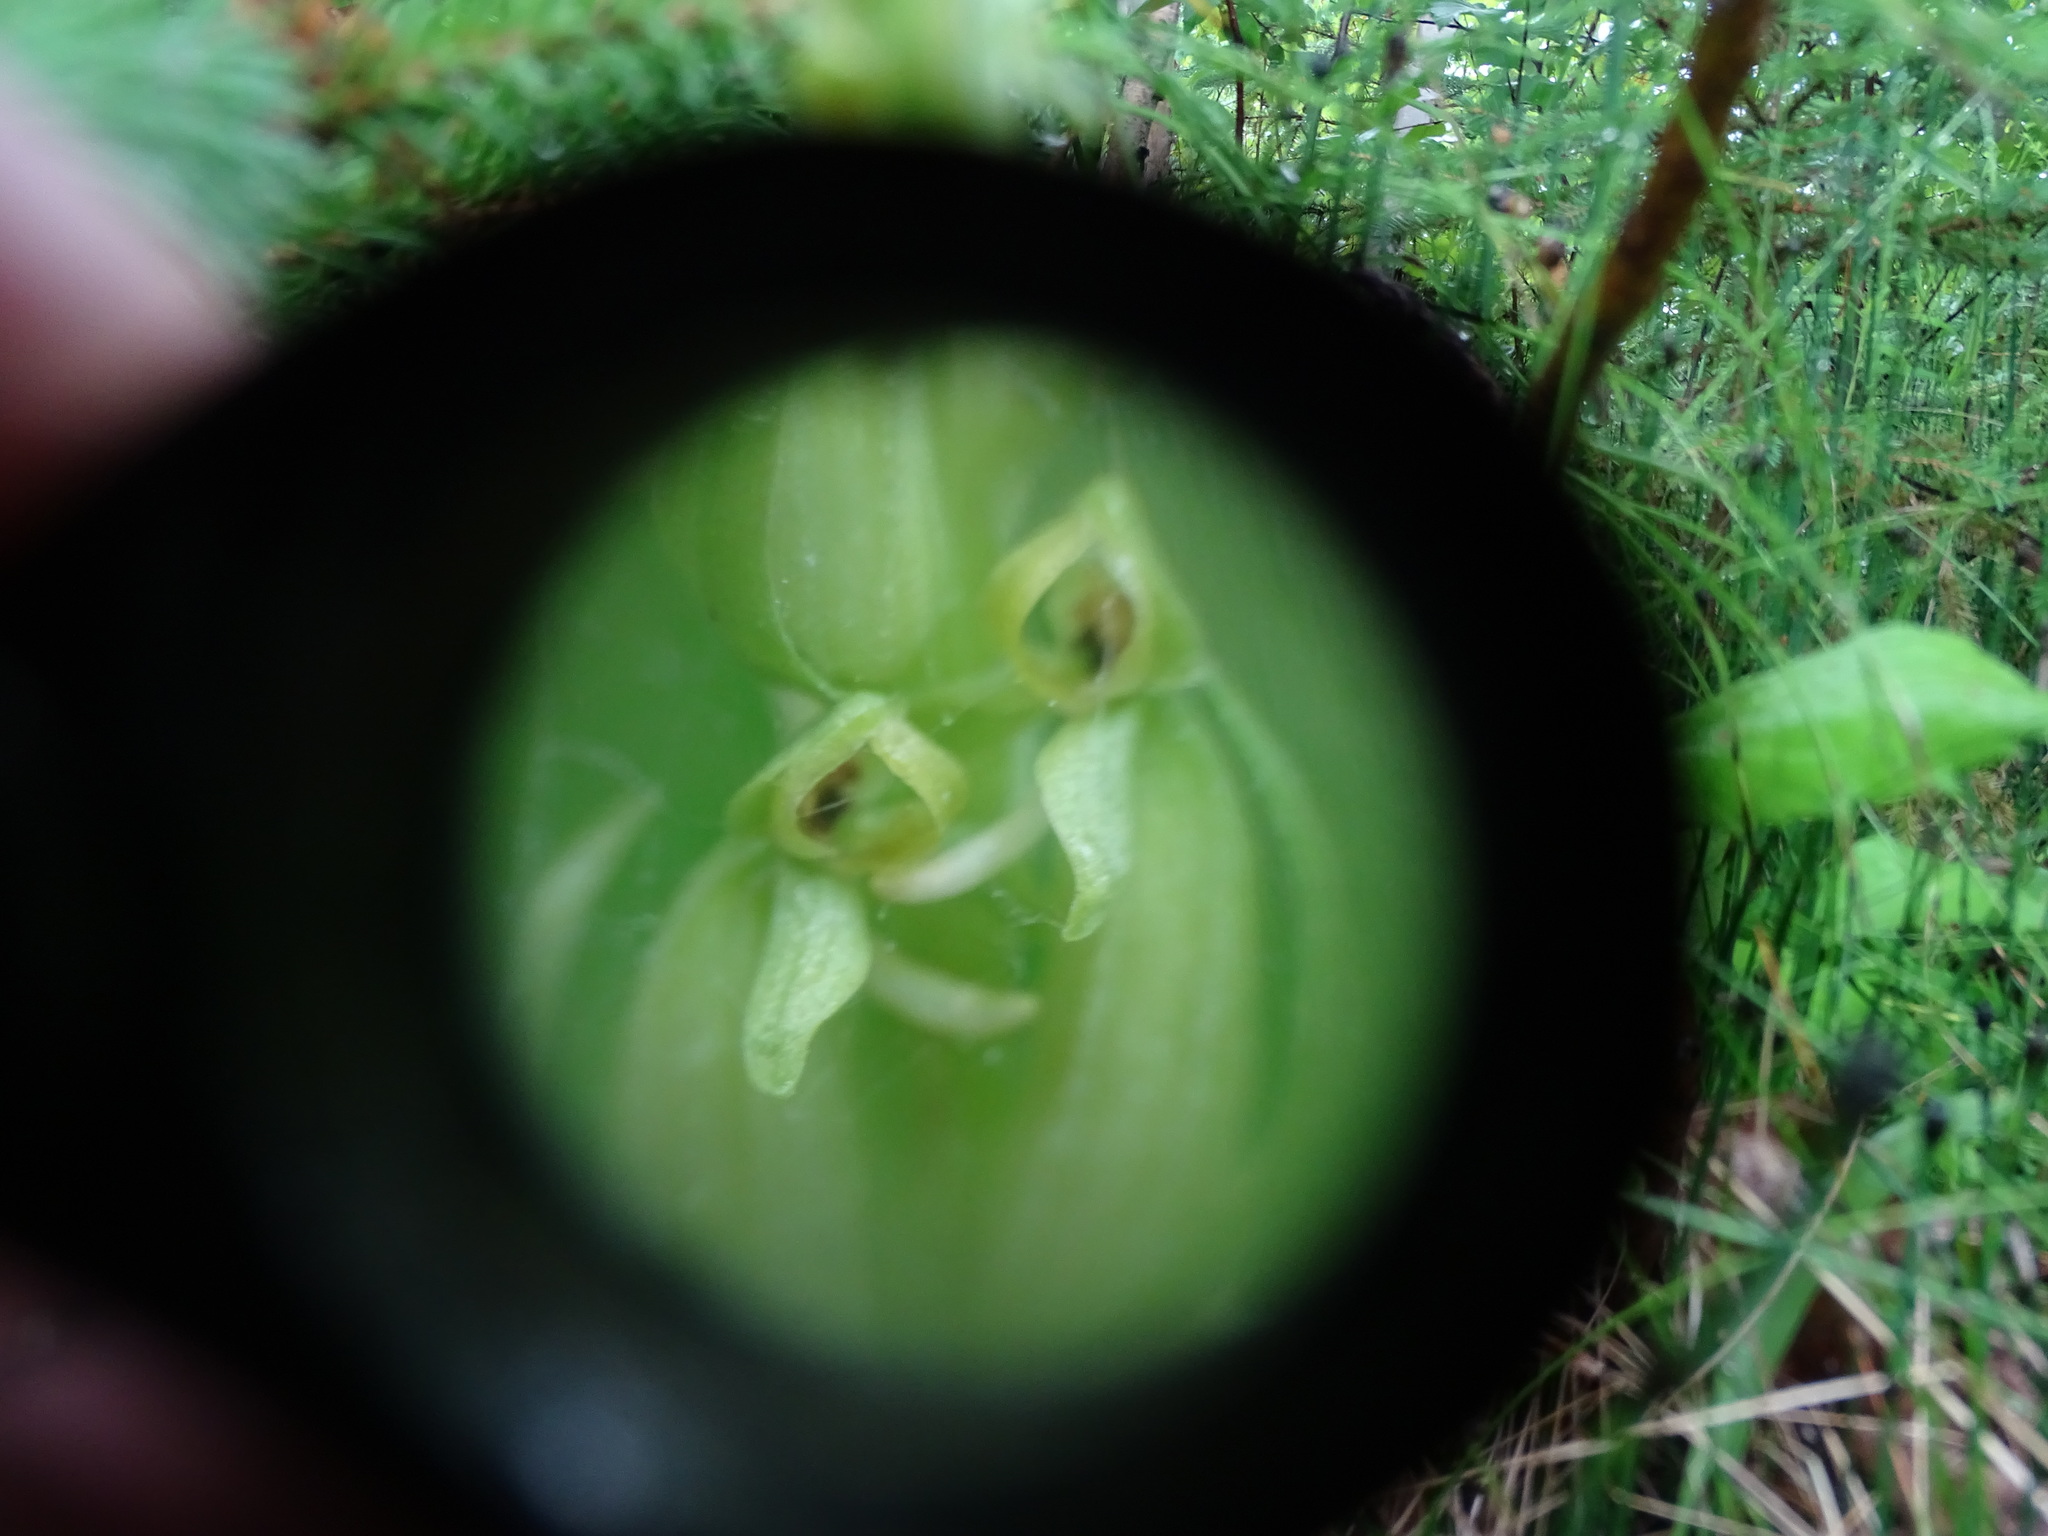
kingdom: Plantae
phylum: Tracheophyta
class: Liliopsida
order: Asparagales
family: Orchidaceae
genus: Platanthera
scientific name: Platanthera aquilonis
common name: Northern green orchid
